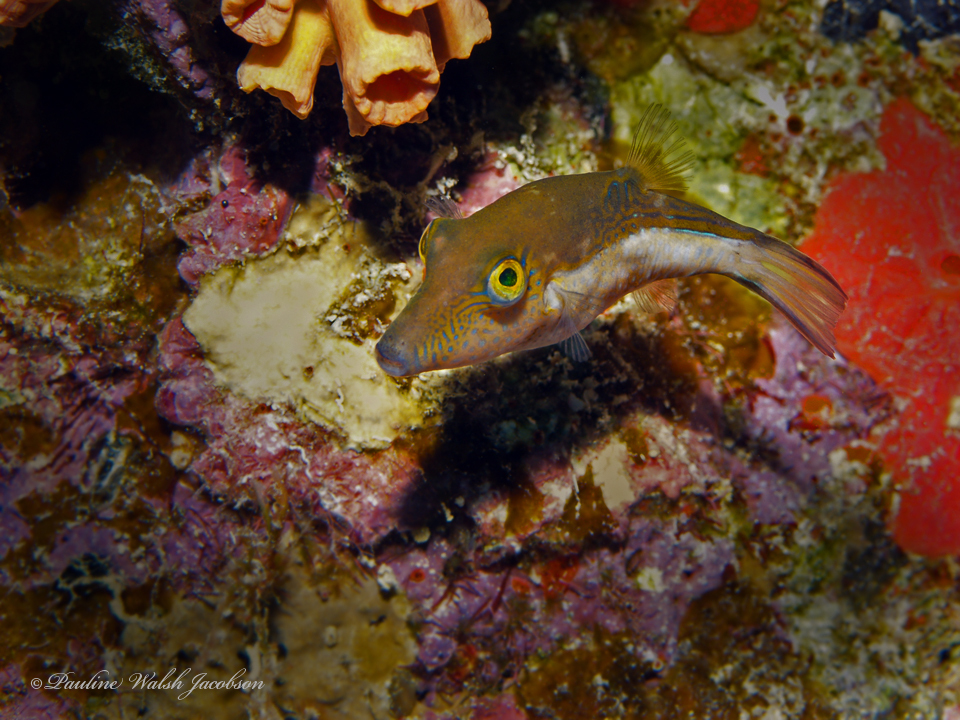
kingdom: Animalia
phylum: Chordata
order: Tetraodontiformes
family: Tetraodontidae
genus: Canthigaster
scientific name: Canthigaster rostrata
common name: Caribbean sharpnose-puffer
